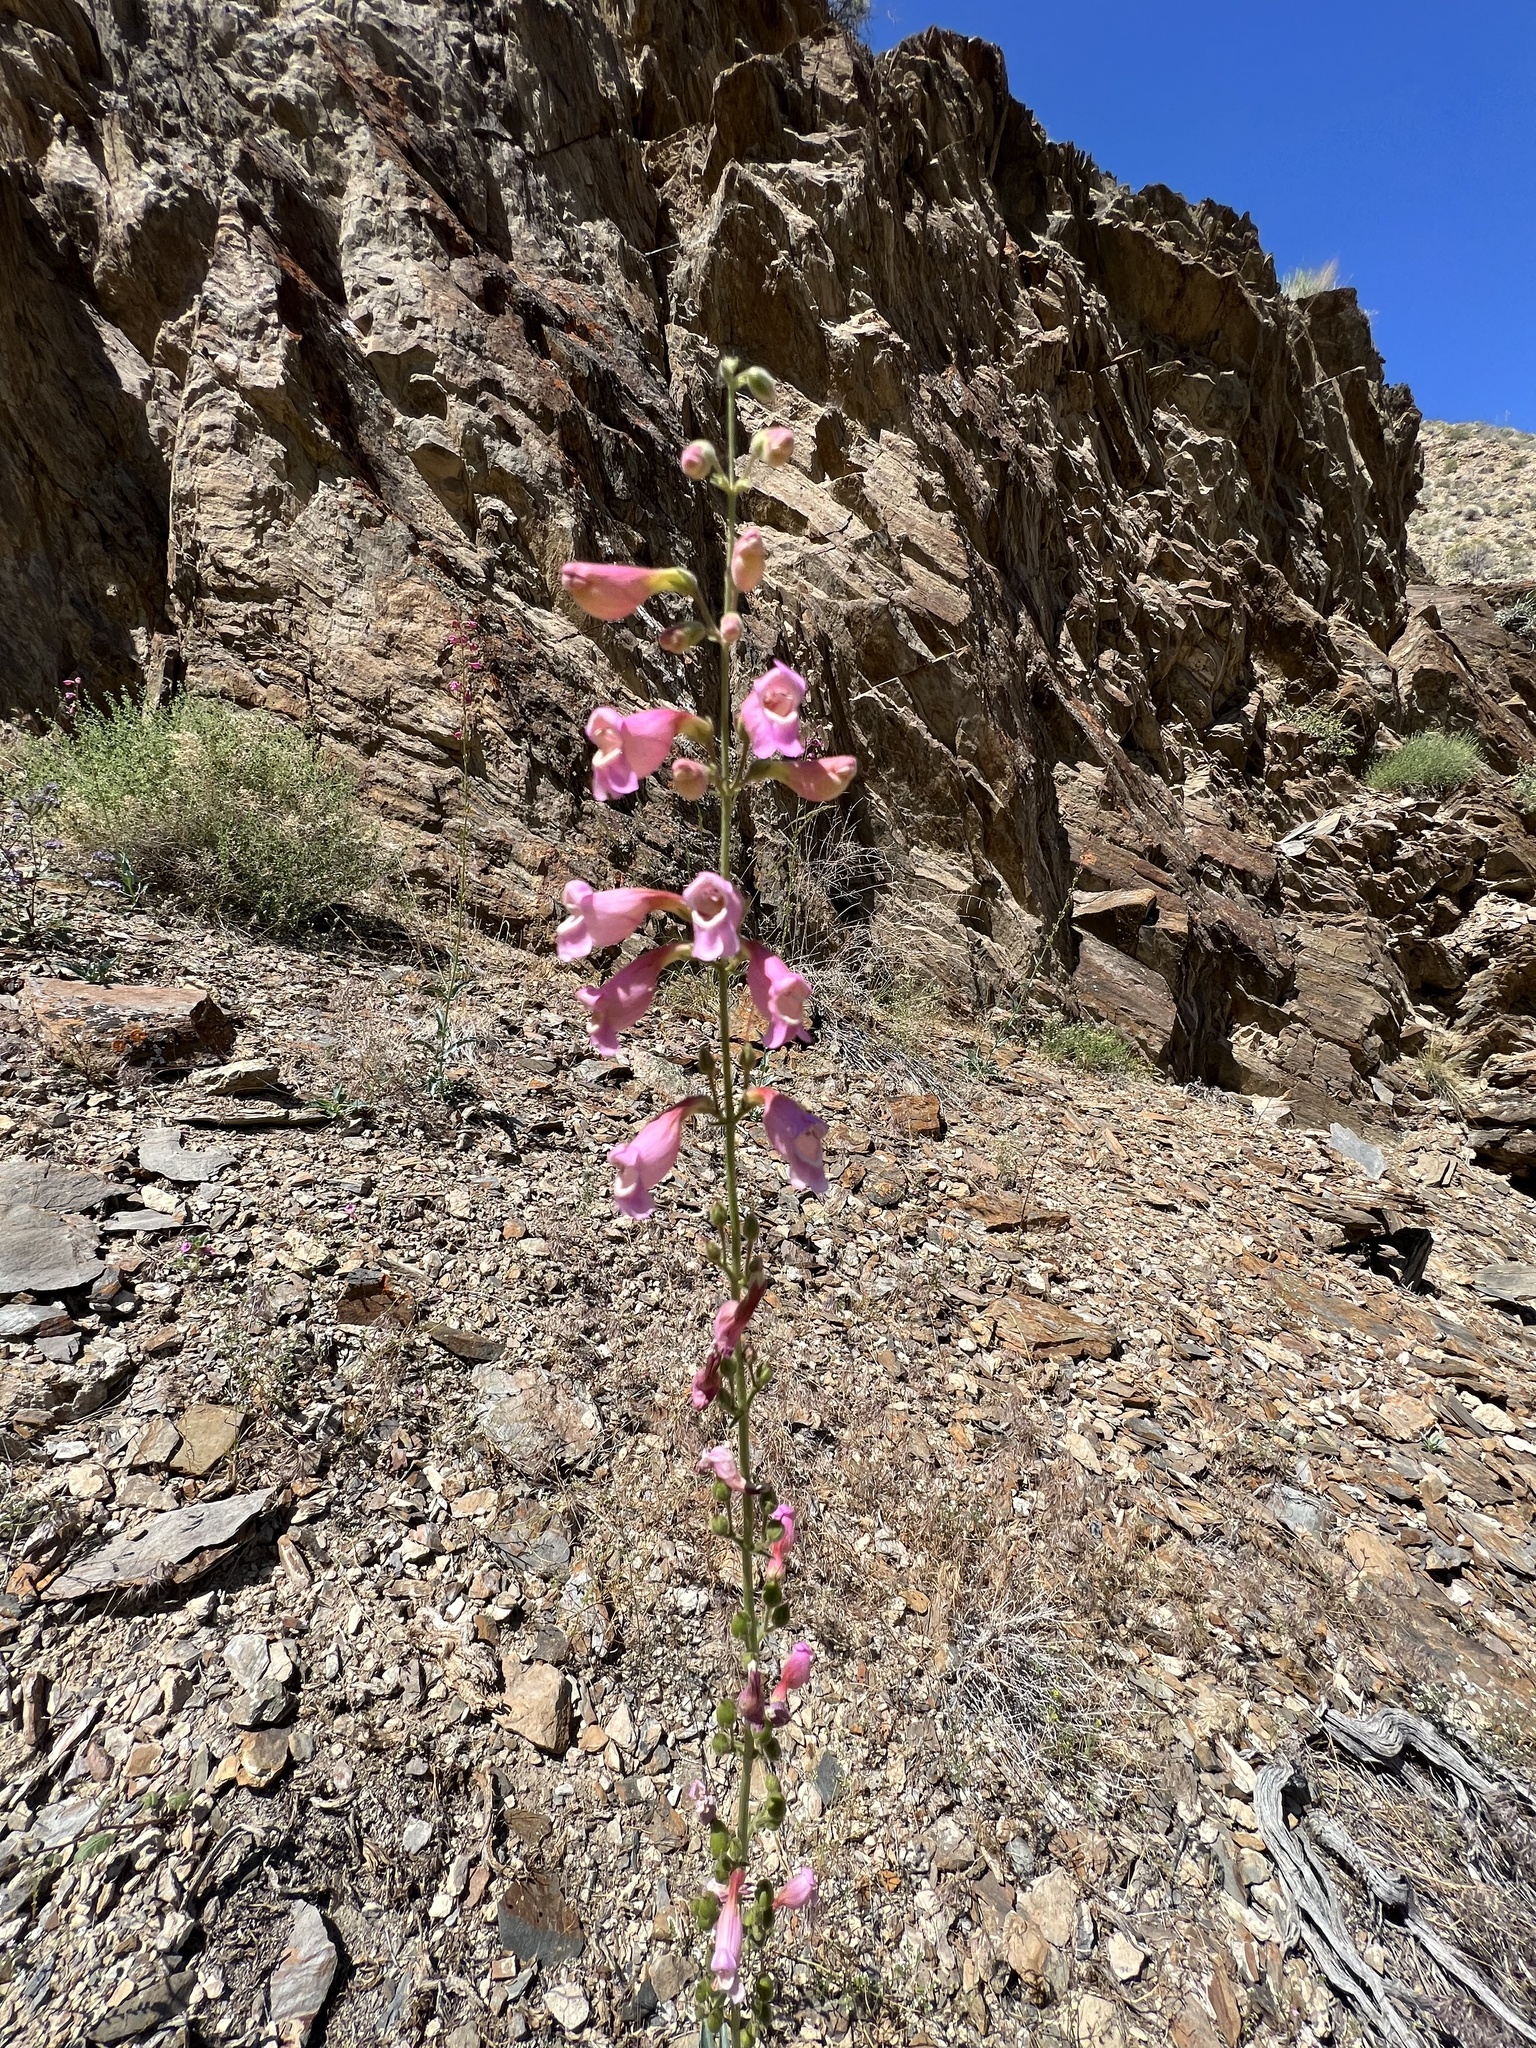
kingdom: Plantae
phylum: Tracheophyta
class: Magnoliopsida
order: Lamiales
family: Plantaginaceae
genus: Penstemon
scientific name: Penstemon floridus
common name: Panamint penstemon
